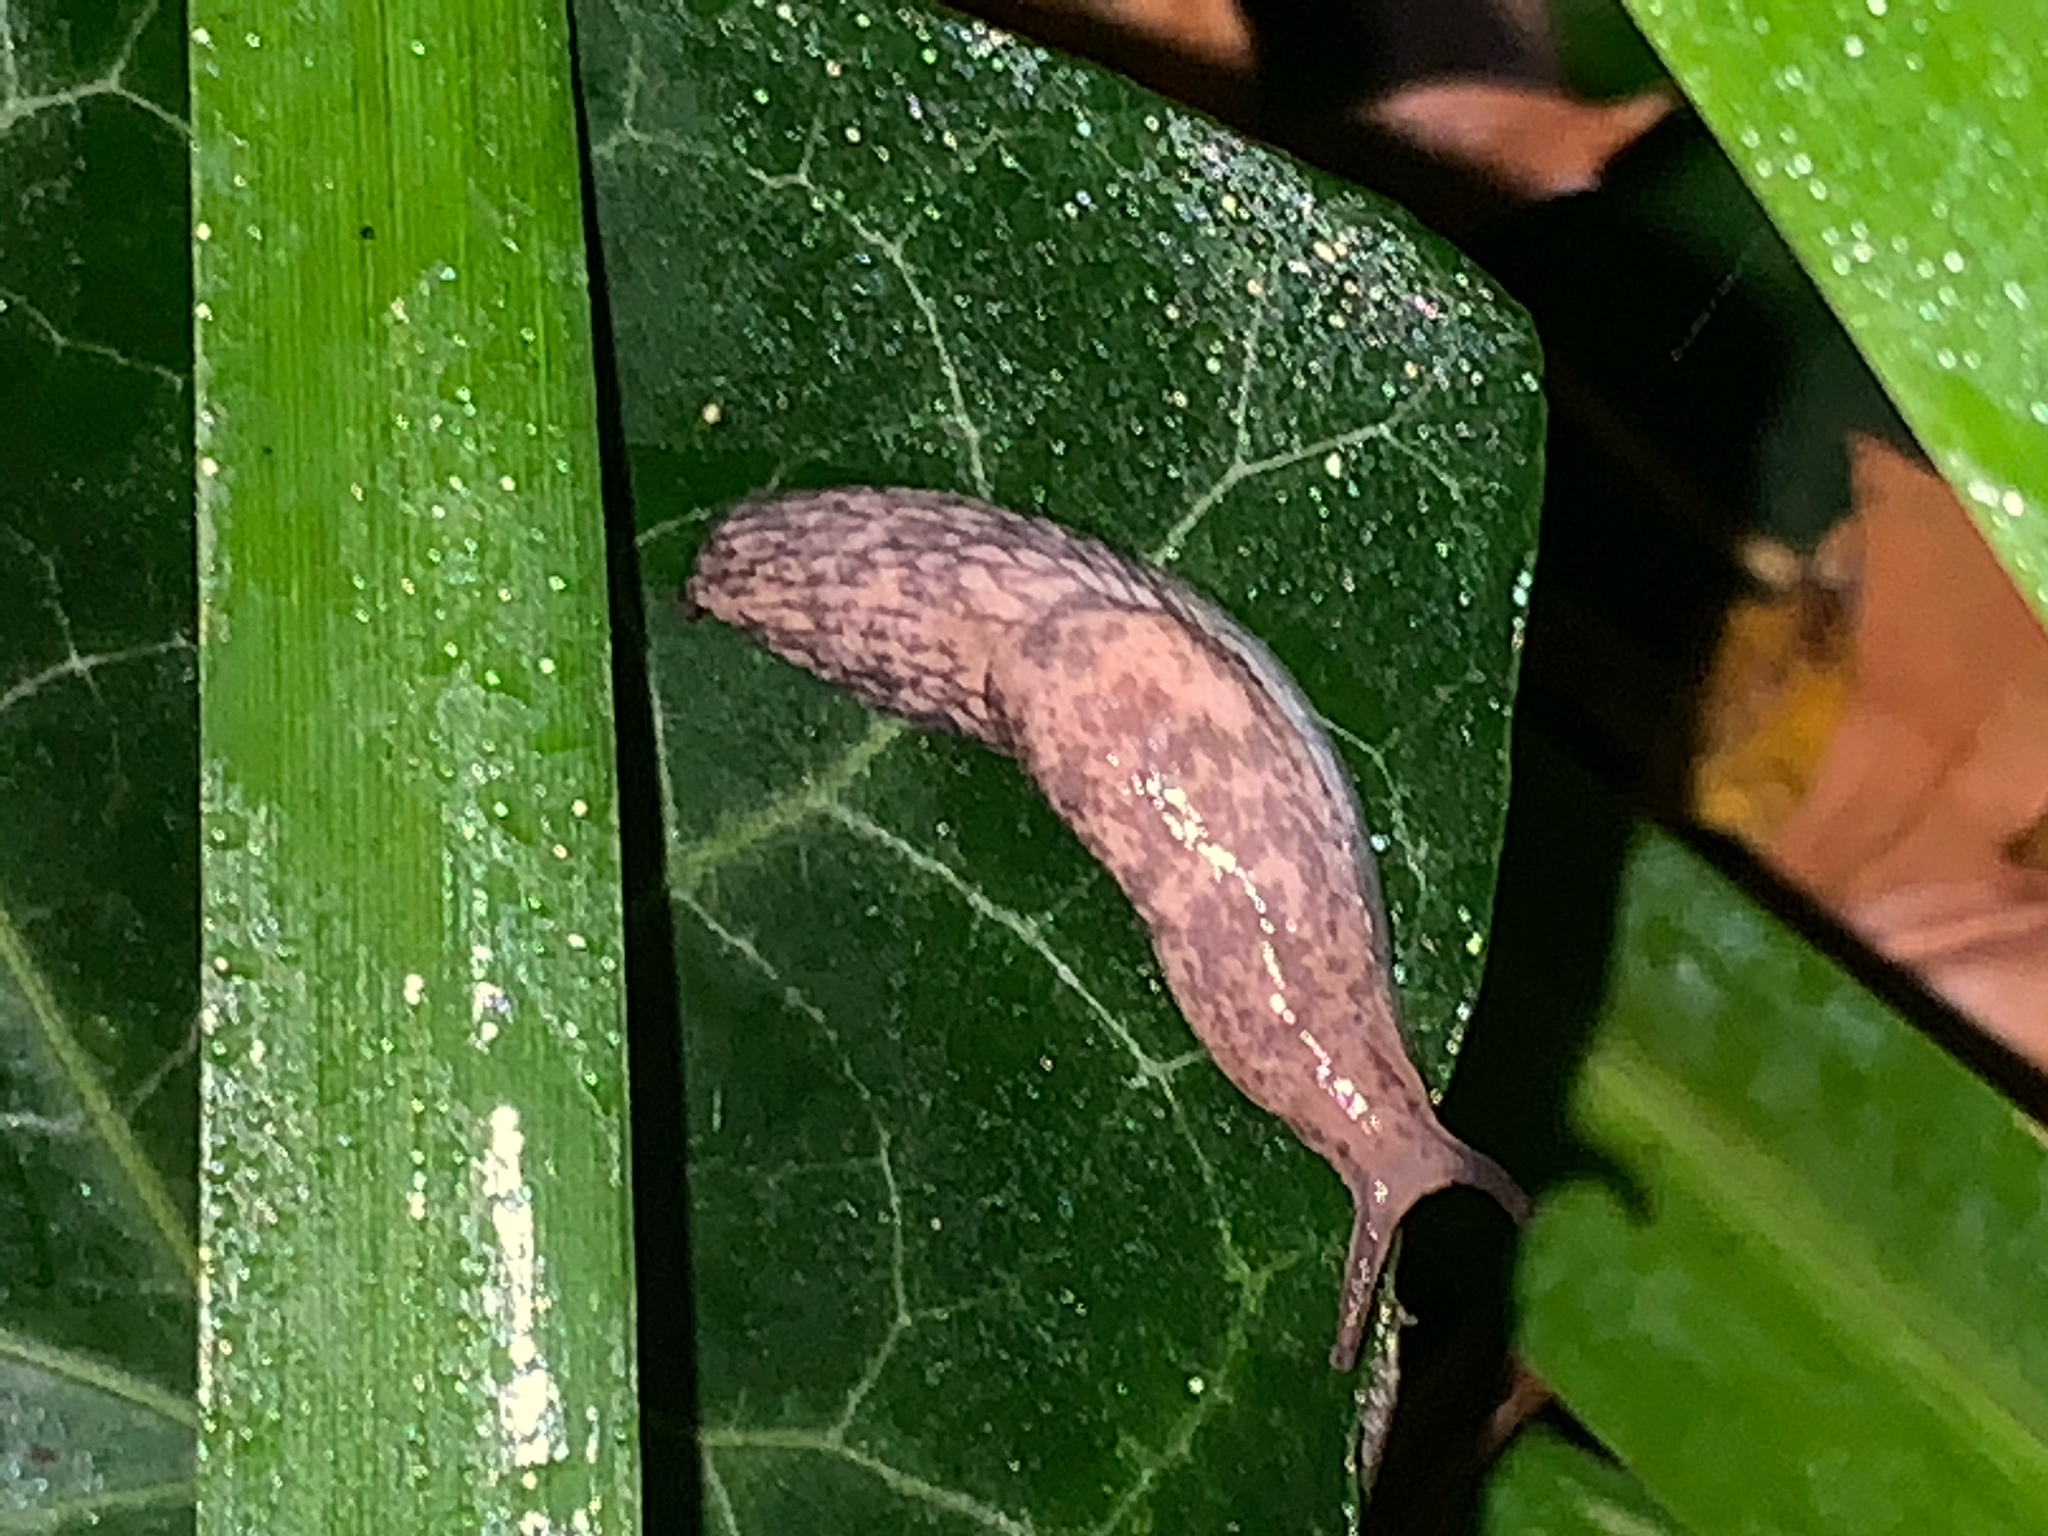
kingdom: Animalia
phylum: Mollusca
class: Gastropoda
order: Stylommatophora
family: Agriolimacidae
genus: Deroceras
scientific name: Deroceras reticulatum
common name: Gray field slug
